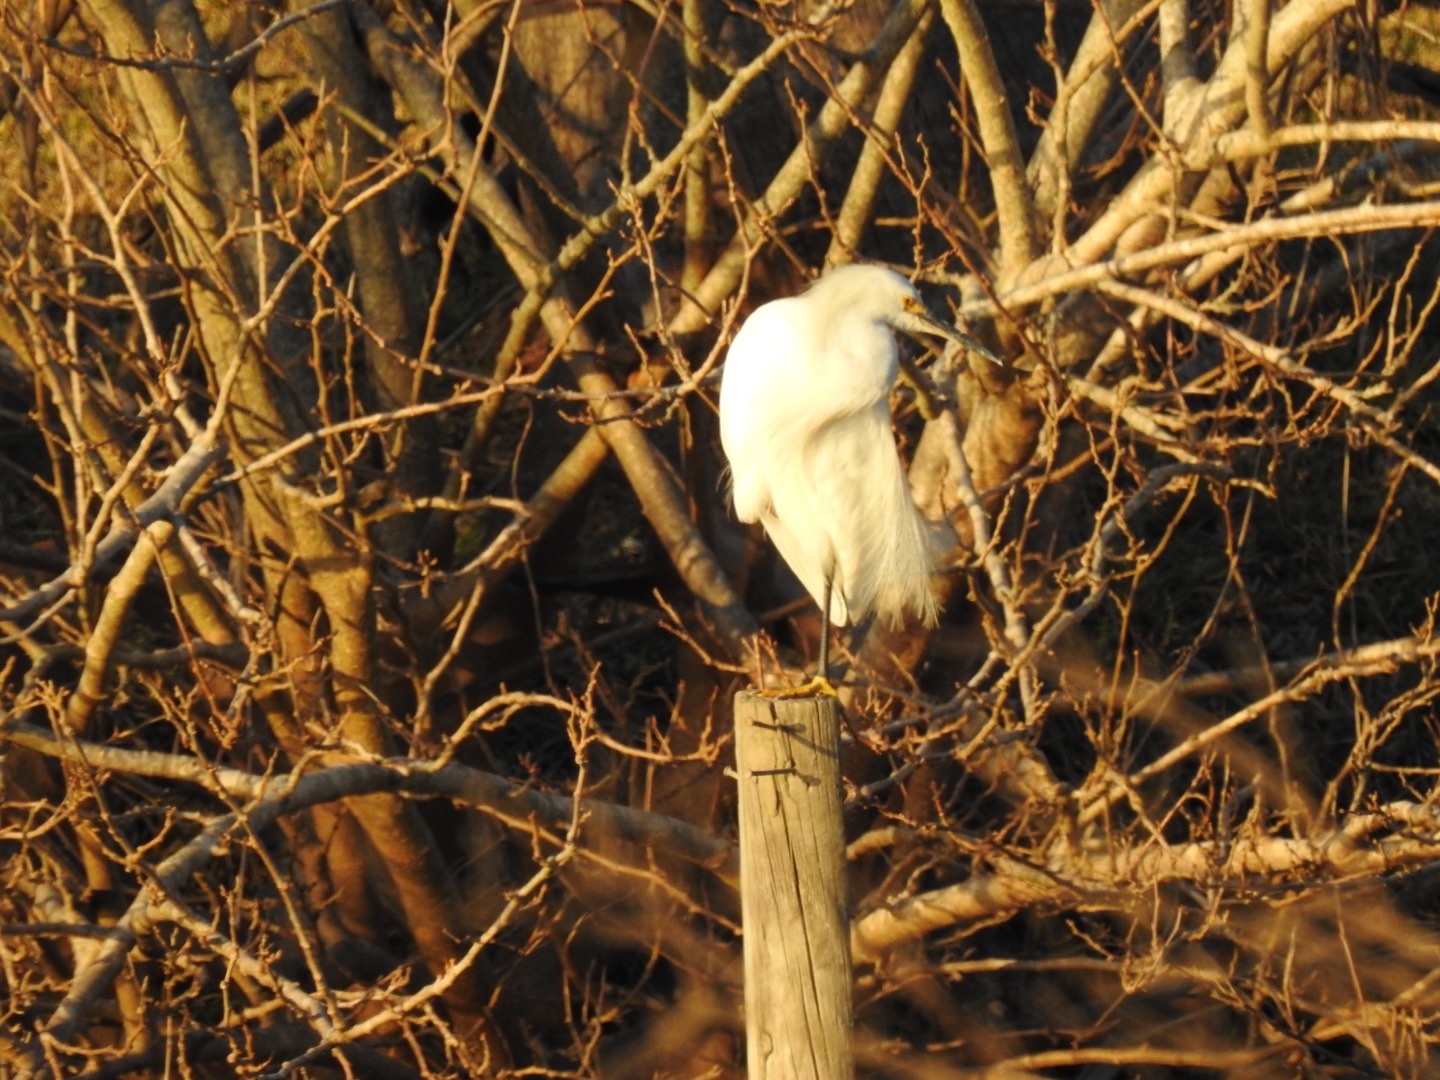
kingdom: Animalia
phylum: Chordata
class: Aves
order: Pelecaniformes
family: Ardeidae
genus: Egretta
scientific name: Egretta thula
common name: Snowy egret
